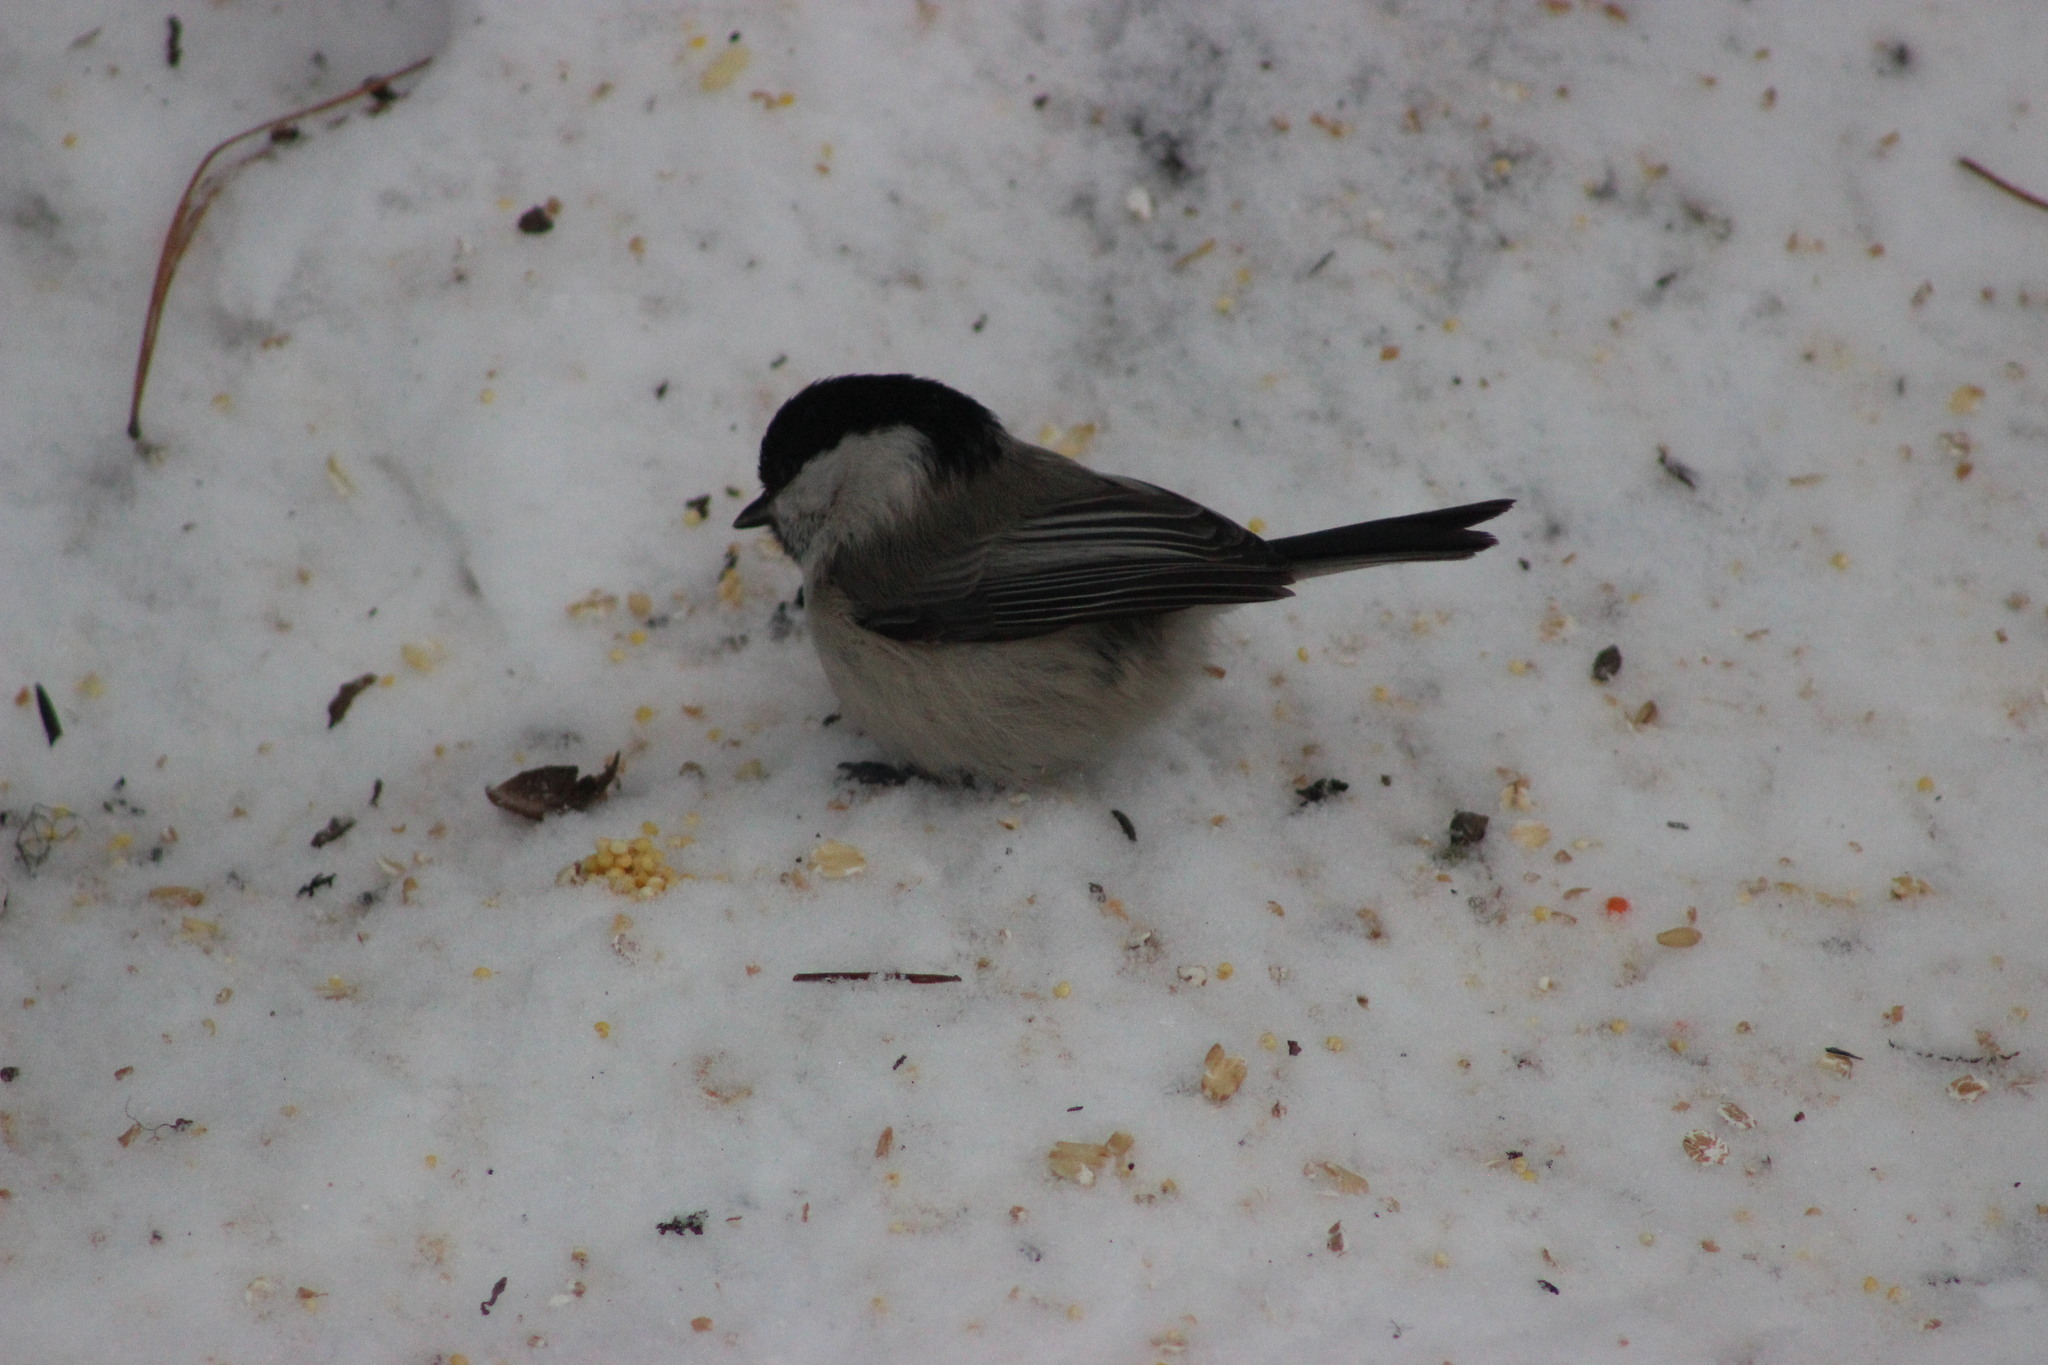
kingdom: Animalia
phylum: Chordata
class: Aves
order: Passeriformes
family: Paridae
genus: Poecile
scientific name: Poecile montanus
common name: Willow tit
